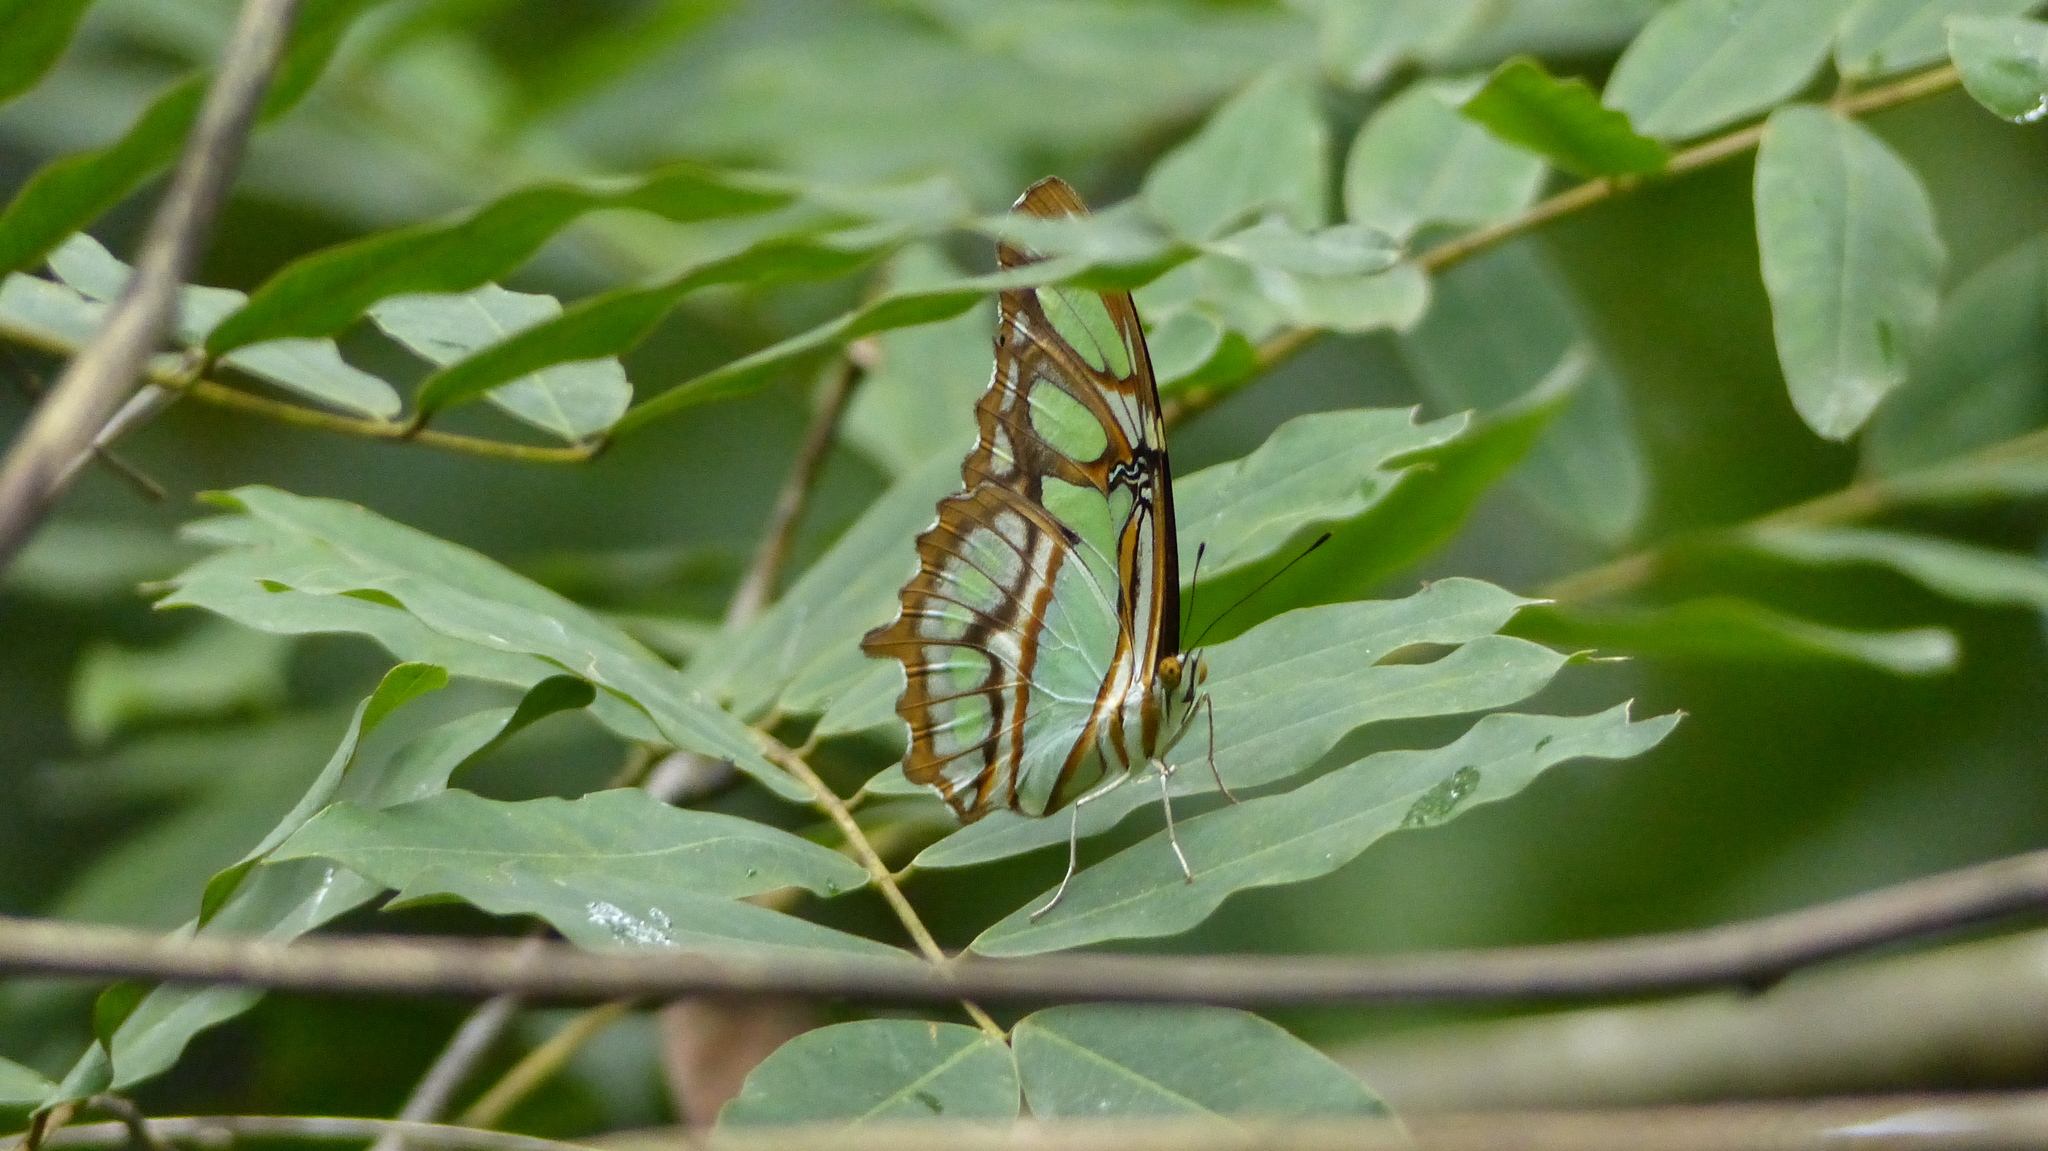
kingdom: Animalia
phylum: Arthropoda
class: Insecta
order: Lepidoptera
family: Nymphalidae
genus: Siproeta
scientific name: Siproeta stelenes
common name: Malachite
